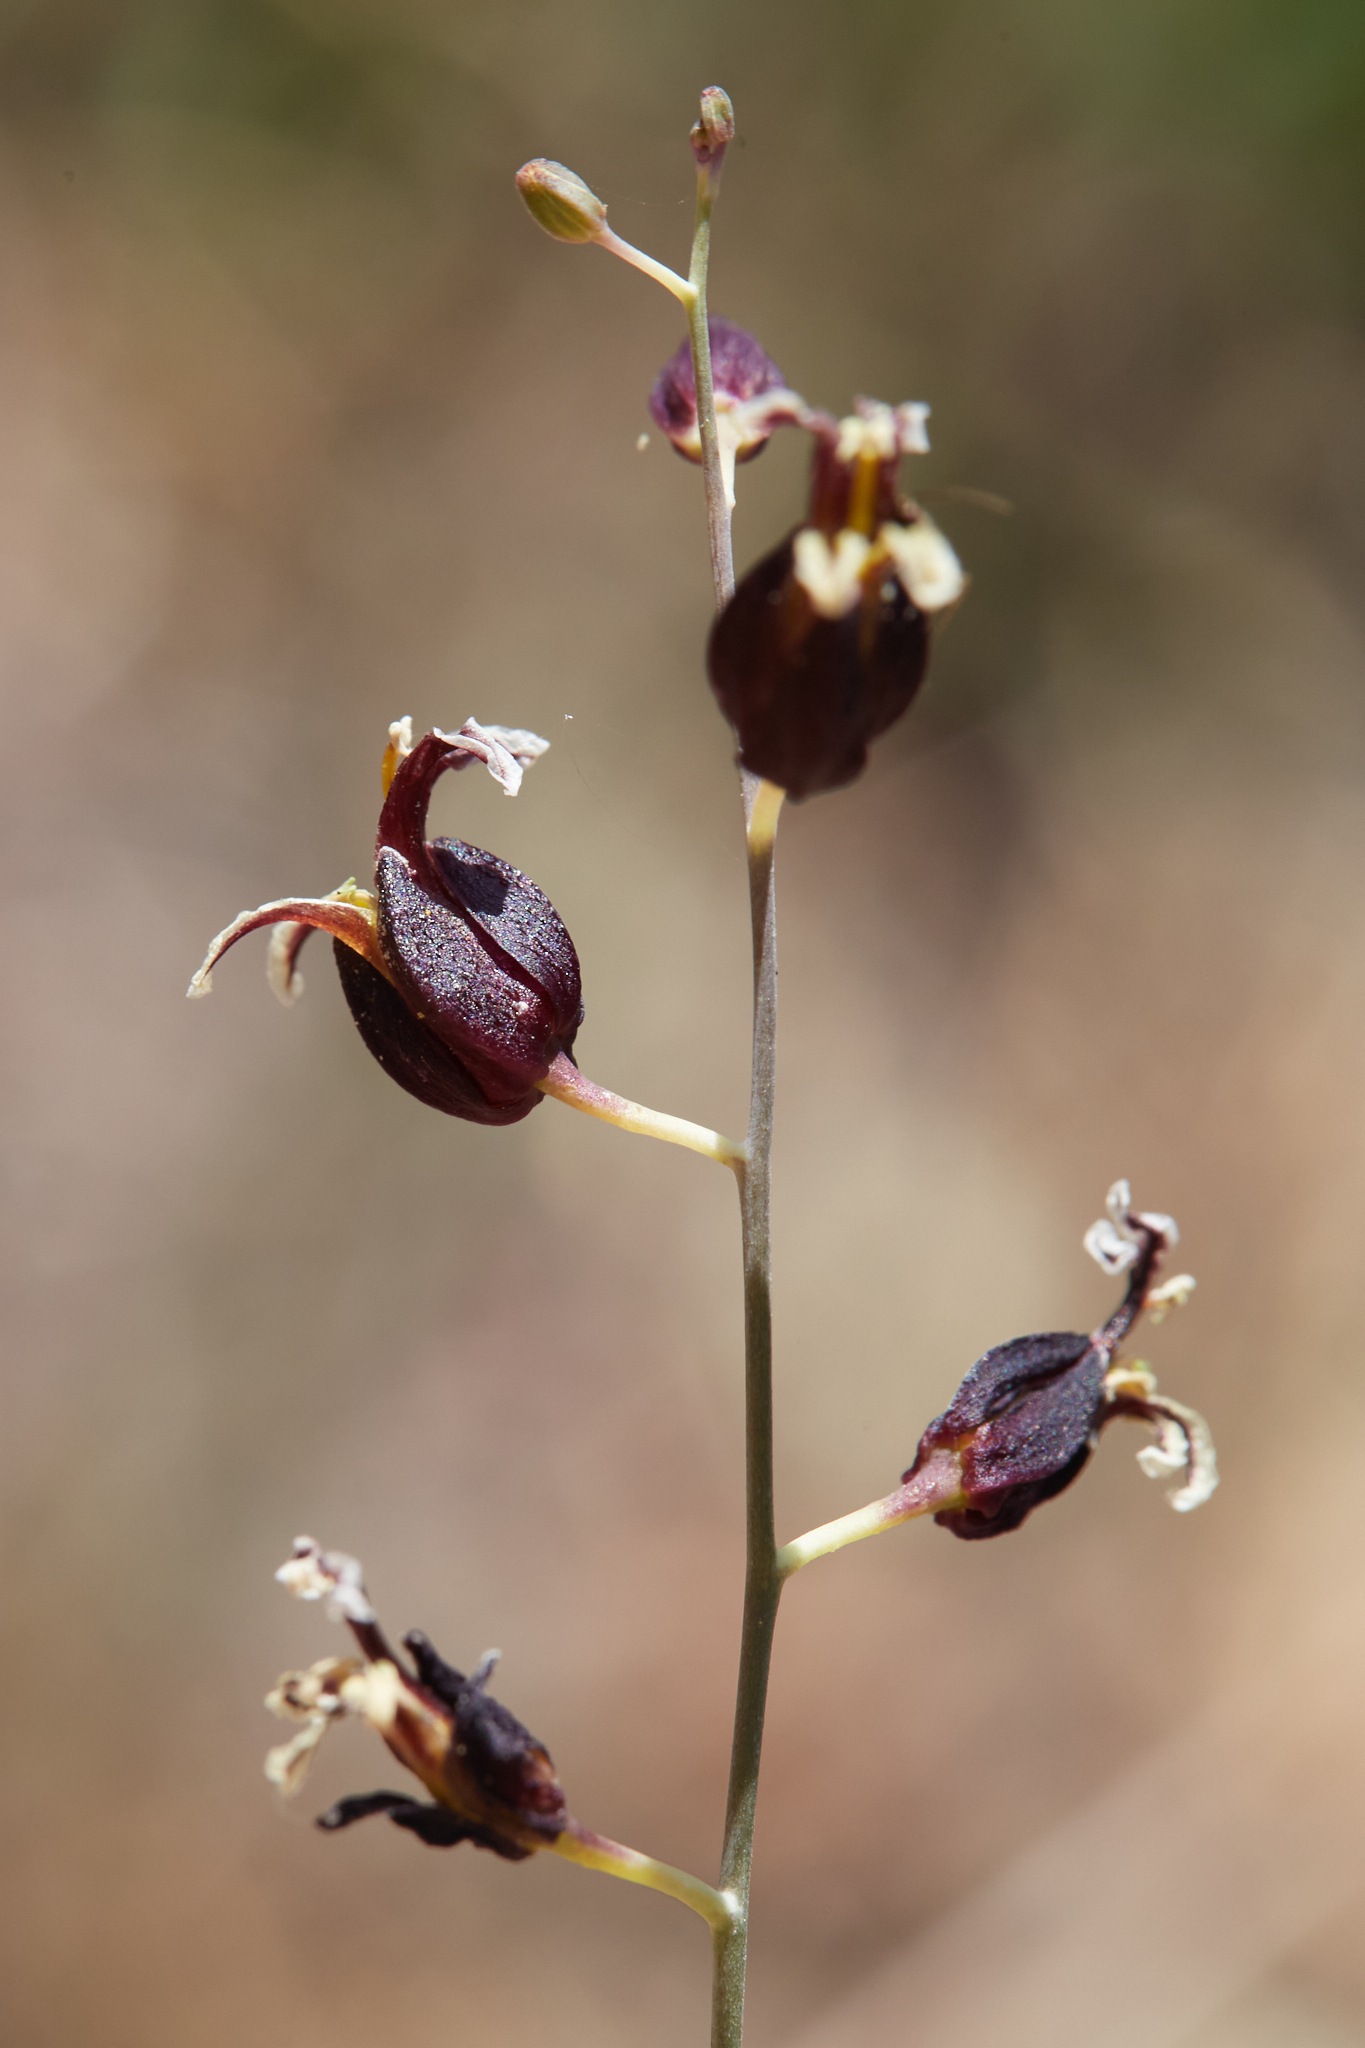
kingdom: Plantae
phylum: Tracheophyta
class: Magnoliopsida
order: Brassicales
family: Brassicaceae
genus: Streptanthus
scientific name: Streptanthus glandulosus
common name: Jewel-flower
